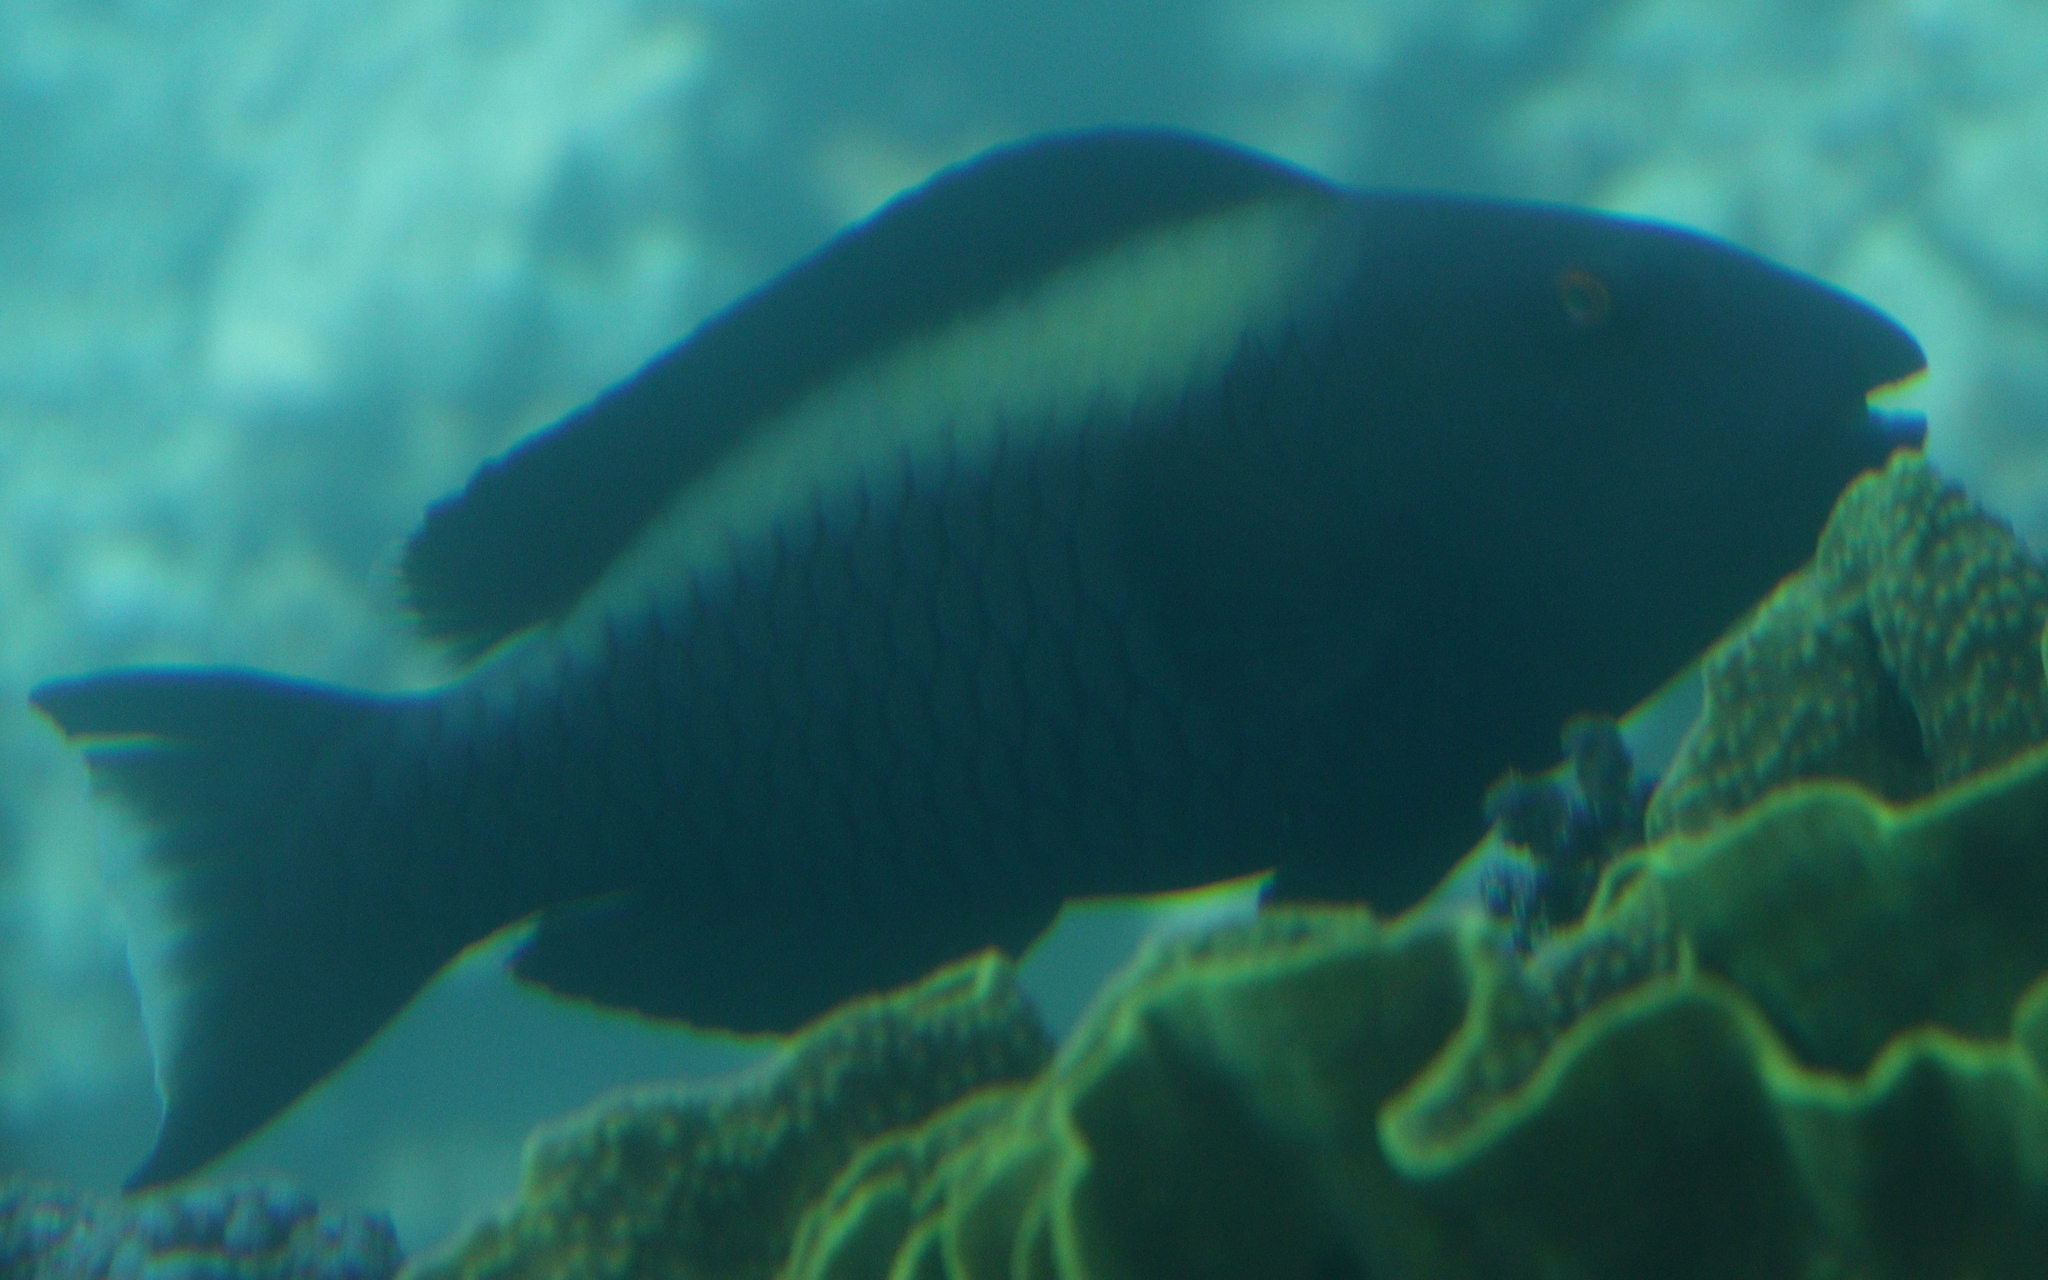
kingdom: Animalia
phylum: Chordata
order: Perciformes
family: Scaridae
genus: Cetoscarus
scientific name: Cetoscarus bicolor
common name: Bicolour parrotfish
